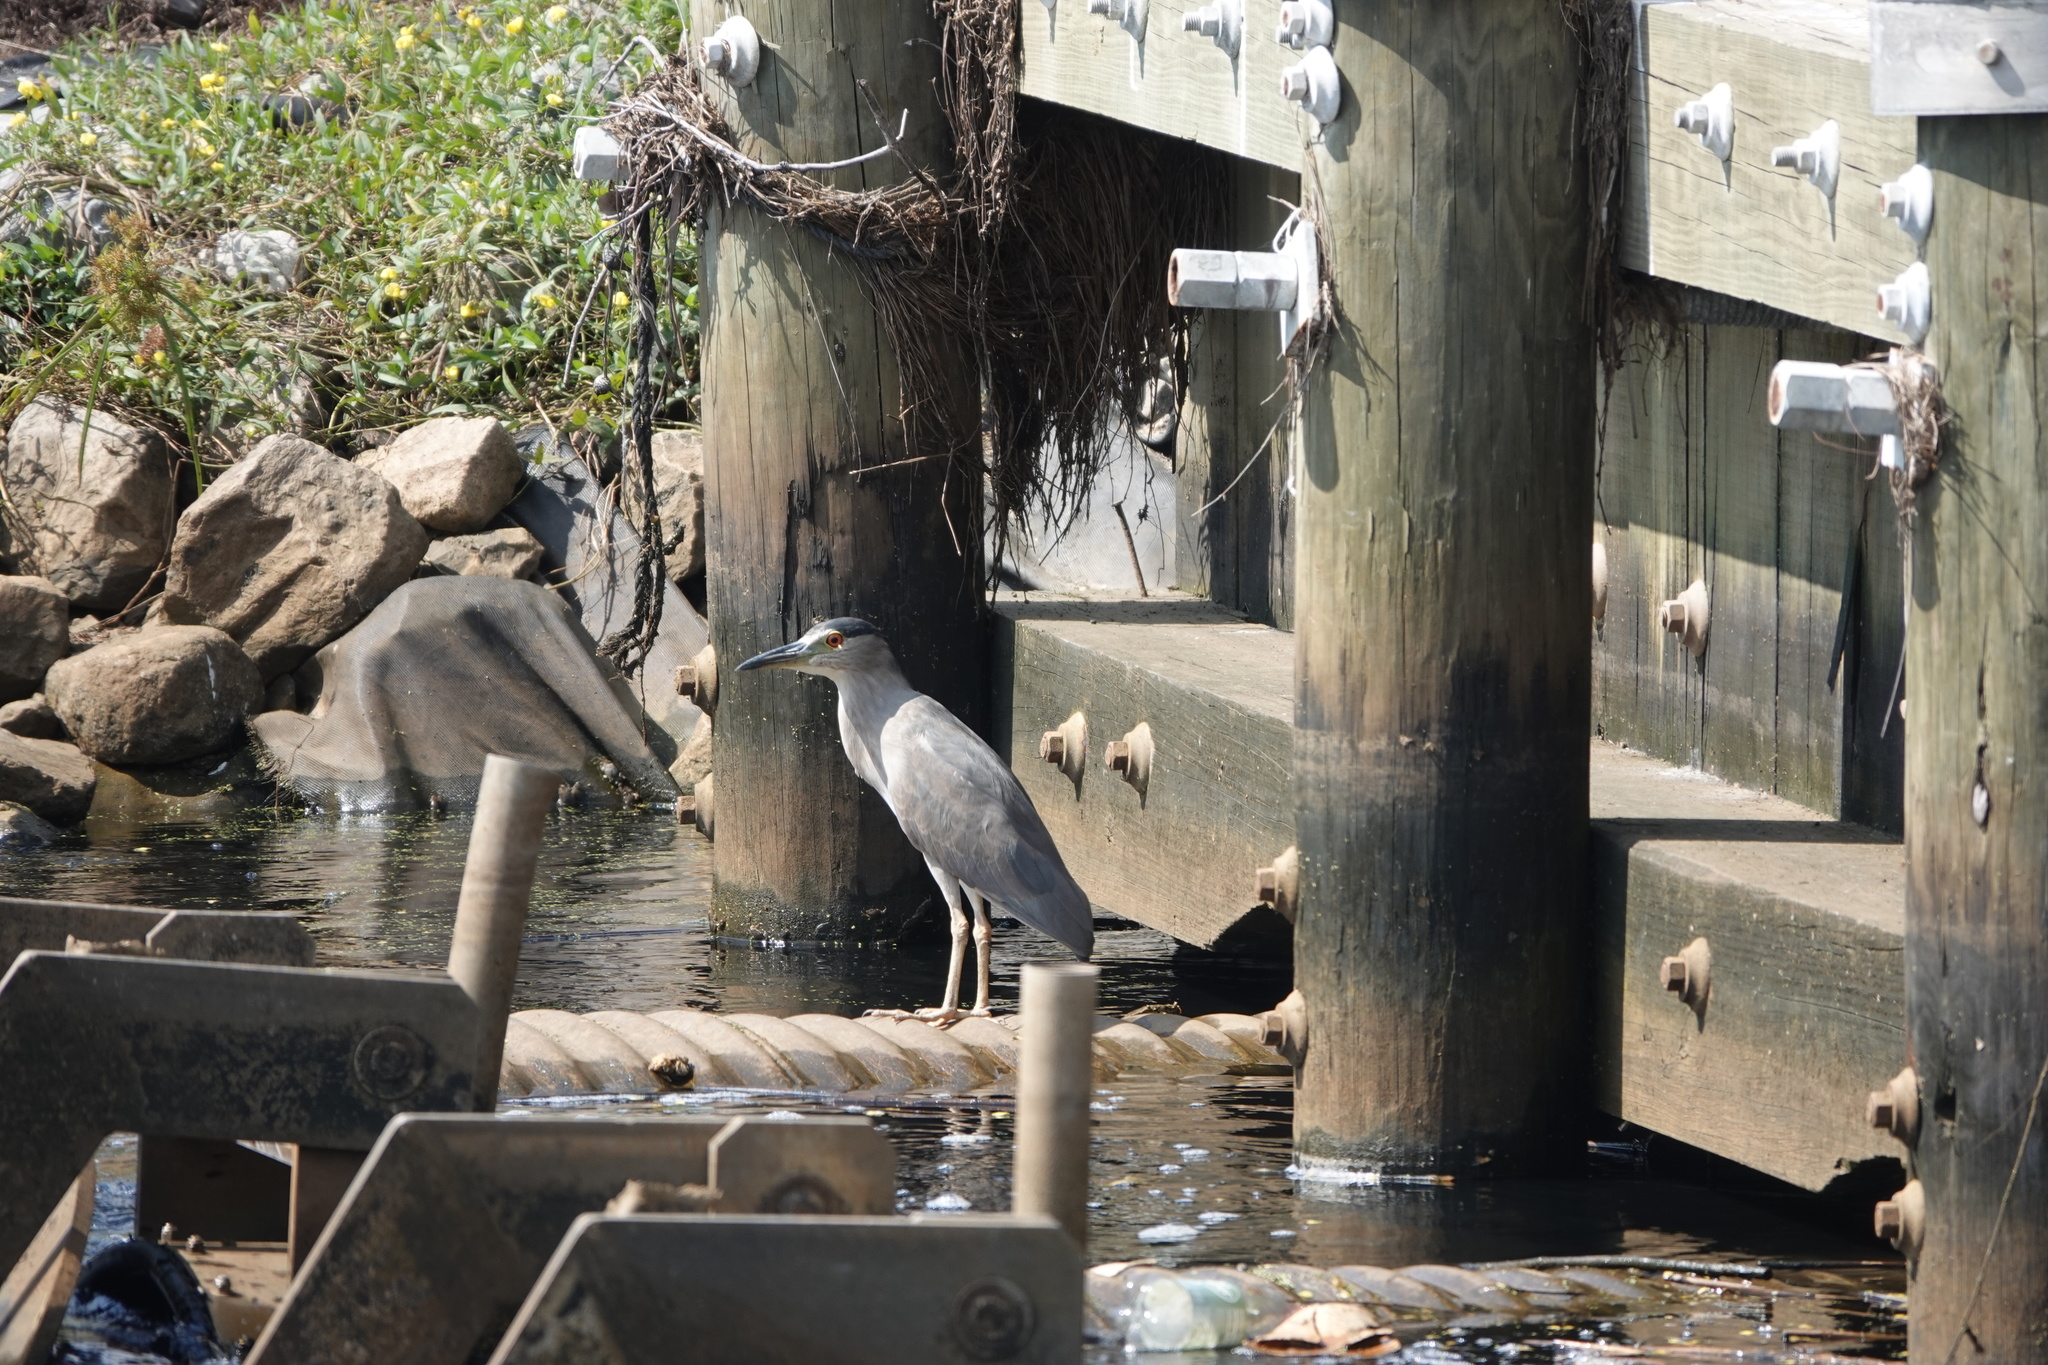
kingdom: Animalia
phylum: Chordata
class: Aves
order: Pelecaniformes
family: Ardeidae
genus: Nycticorax
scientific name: Nycticorax nycticorax
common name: Black-crowned night heron
